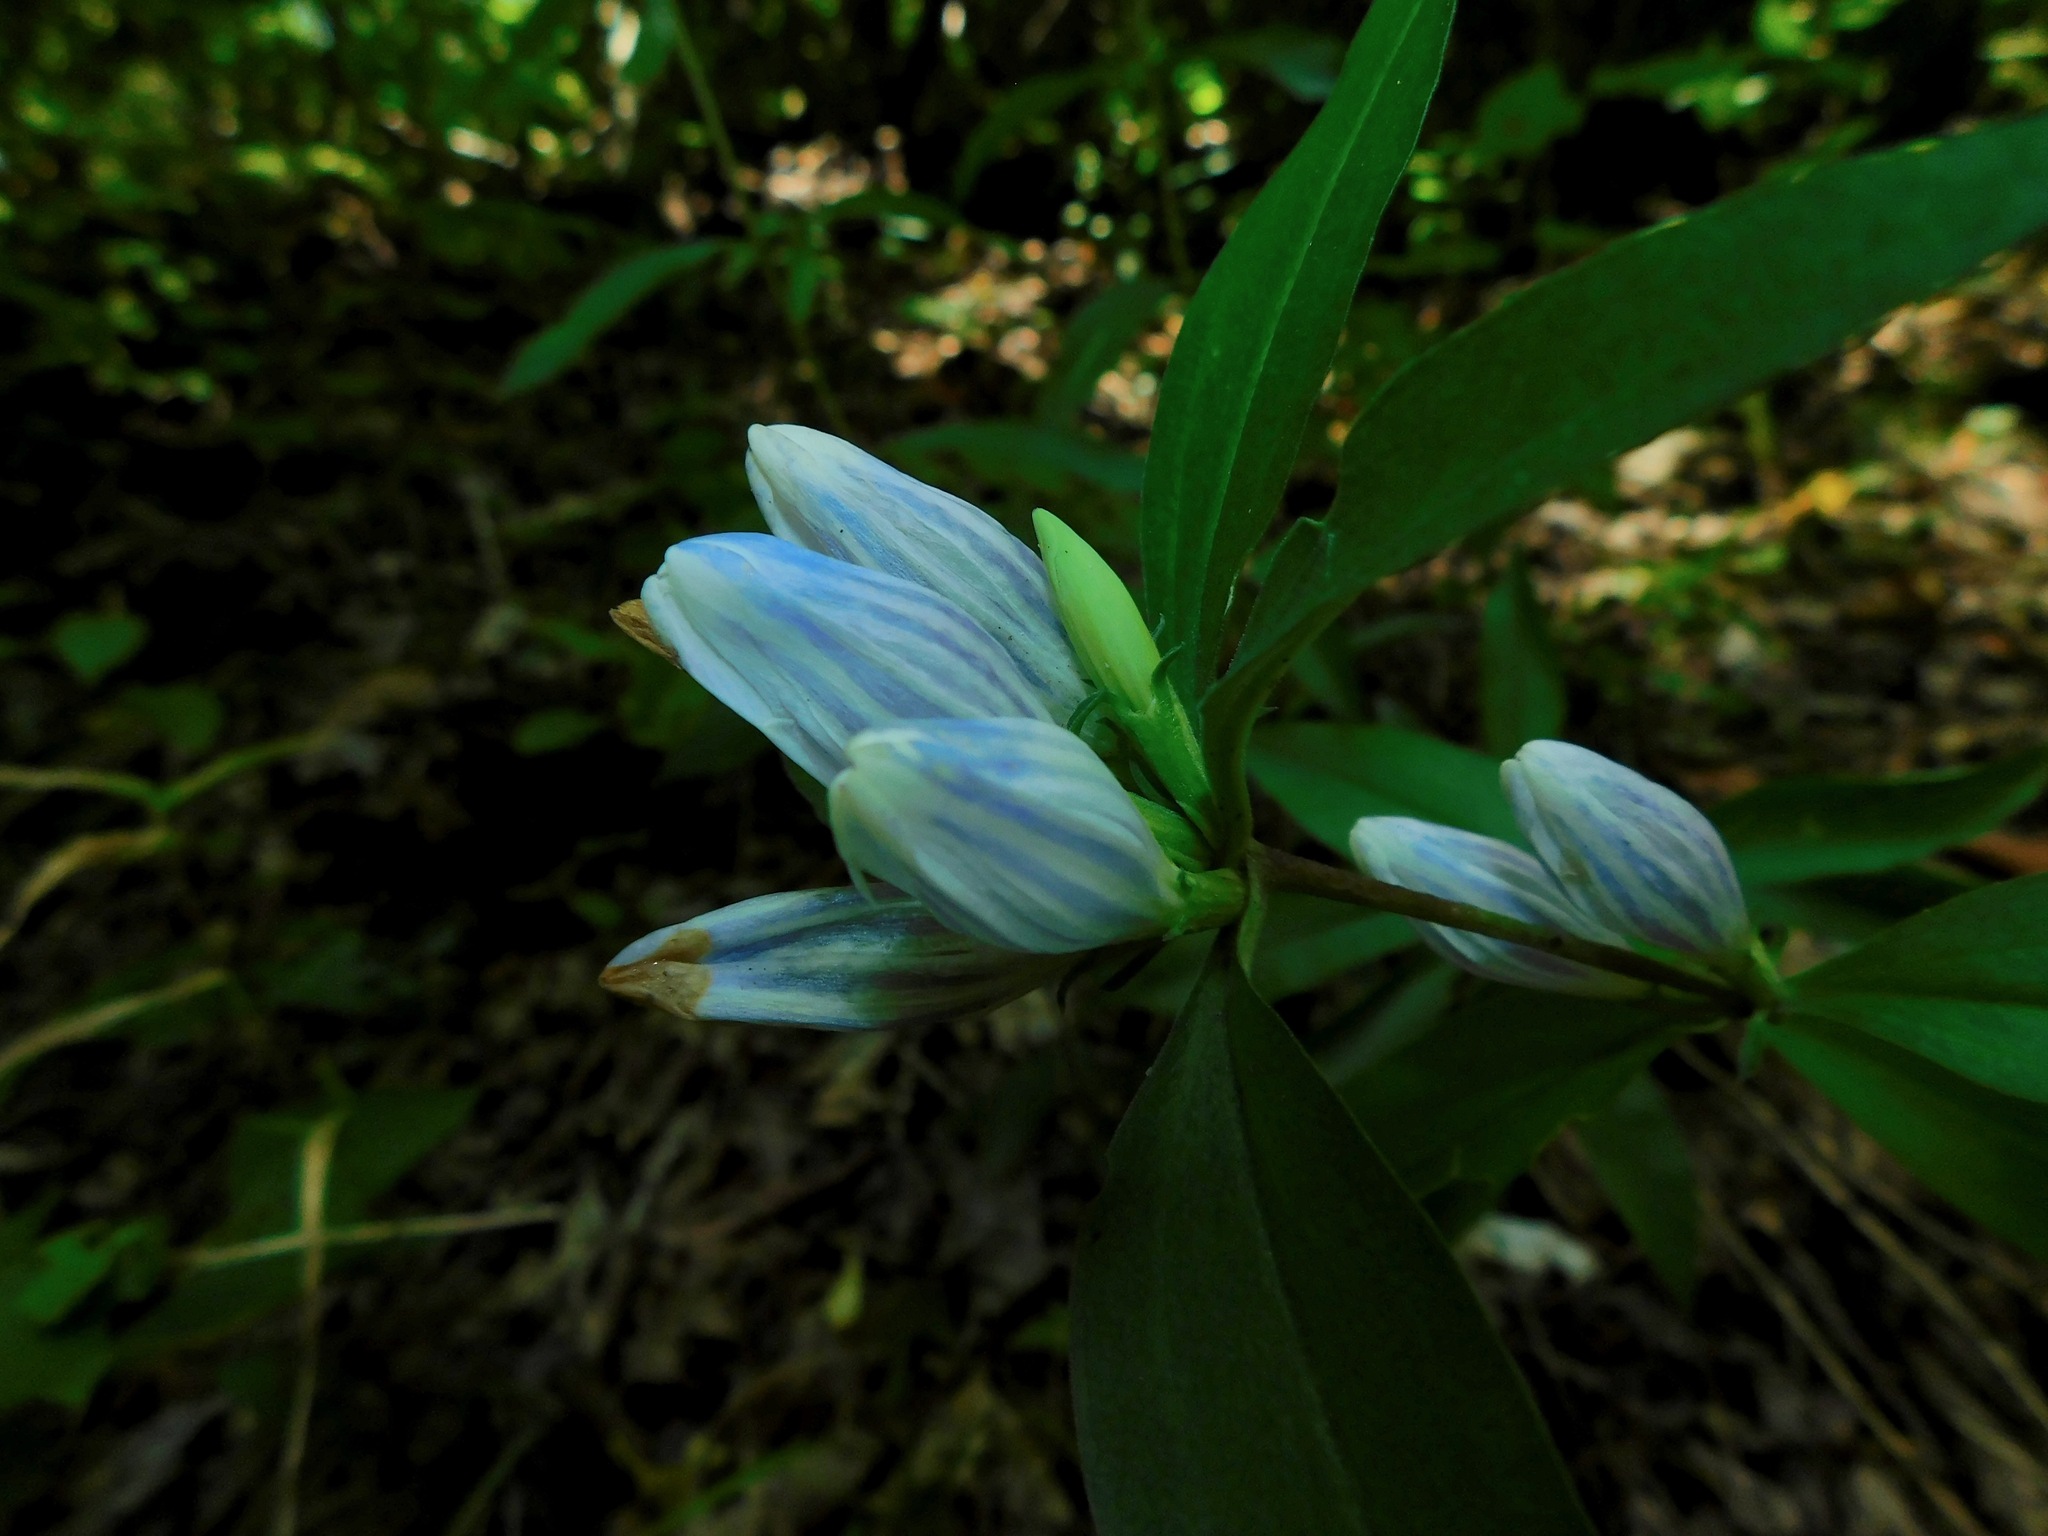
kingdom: Plantae
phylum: Tracheophyta
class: Magnoliopsida
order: Gentianales
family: Gentianaceae
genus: Gentiana
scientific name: Gentiana decora
